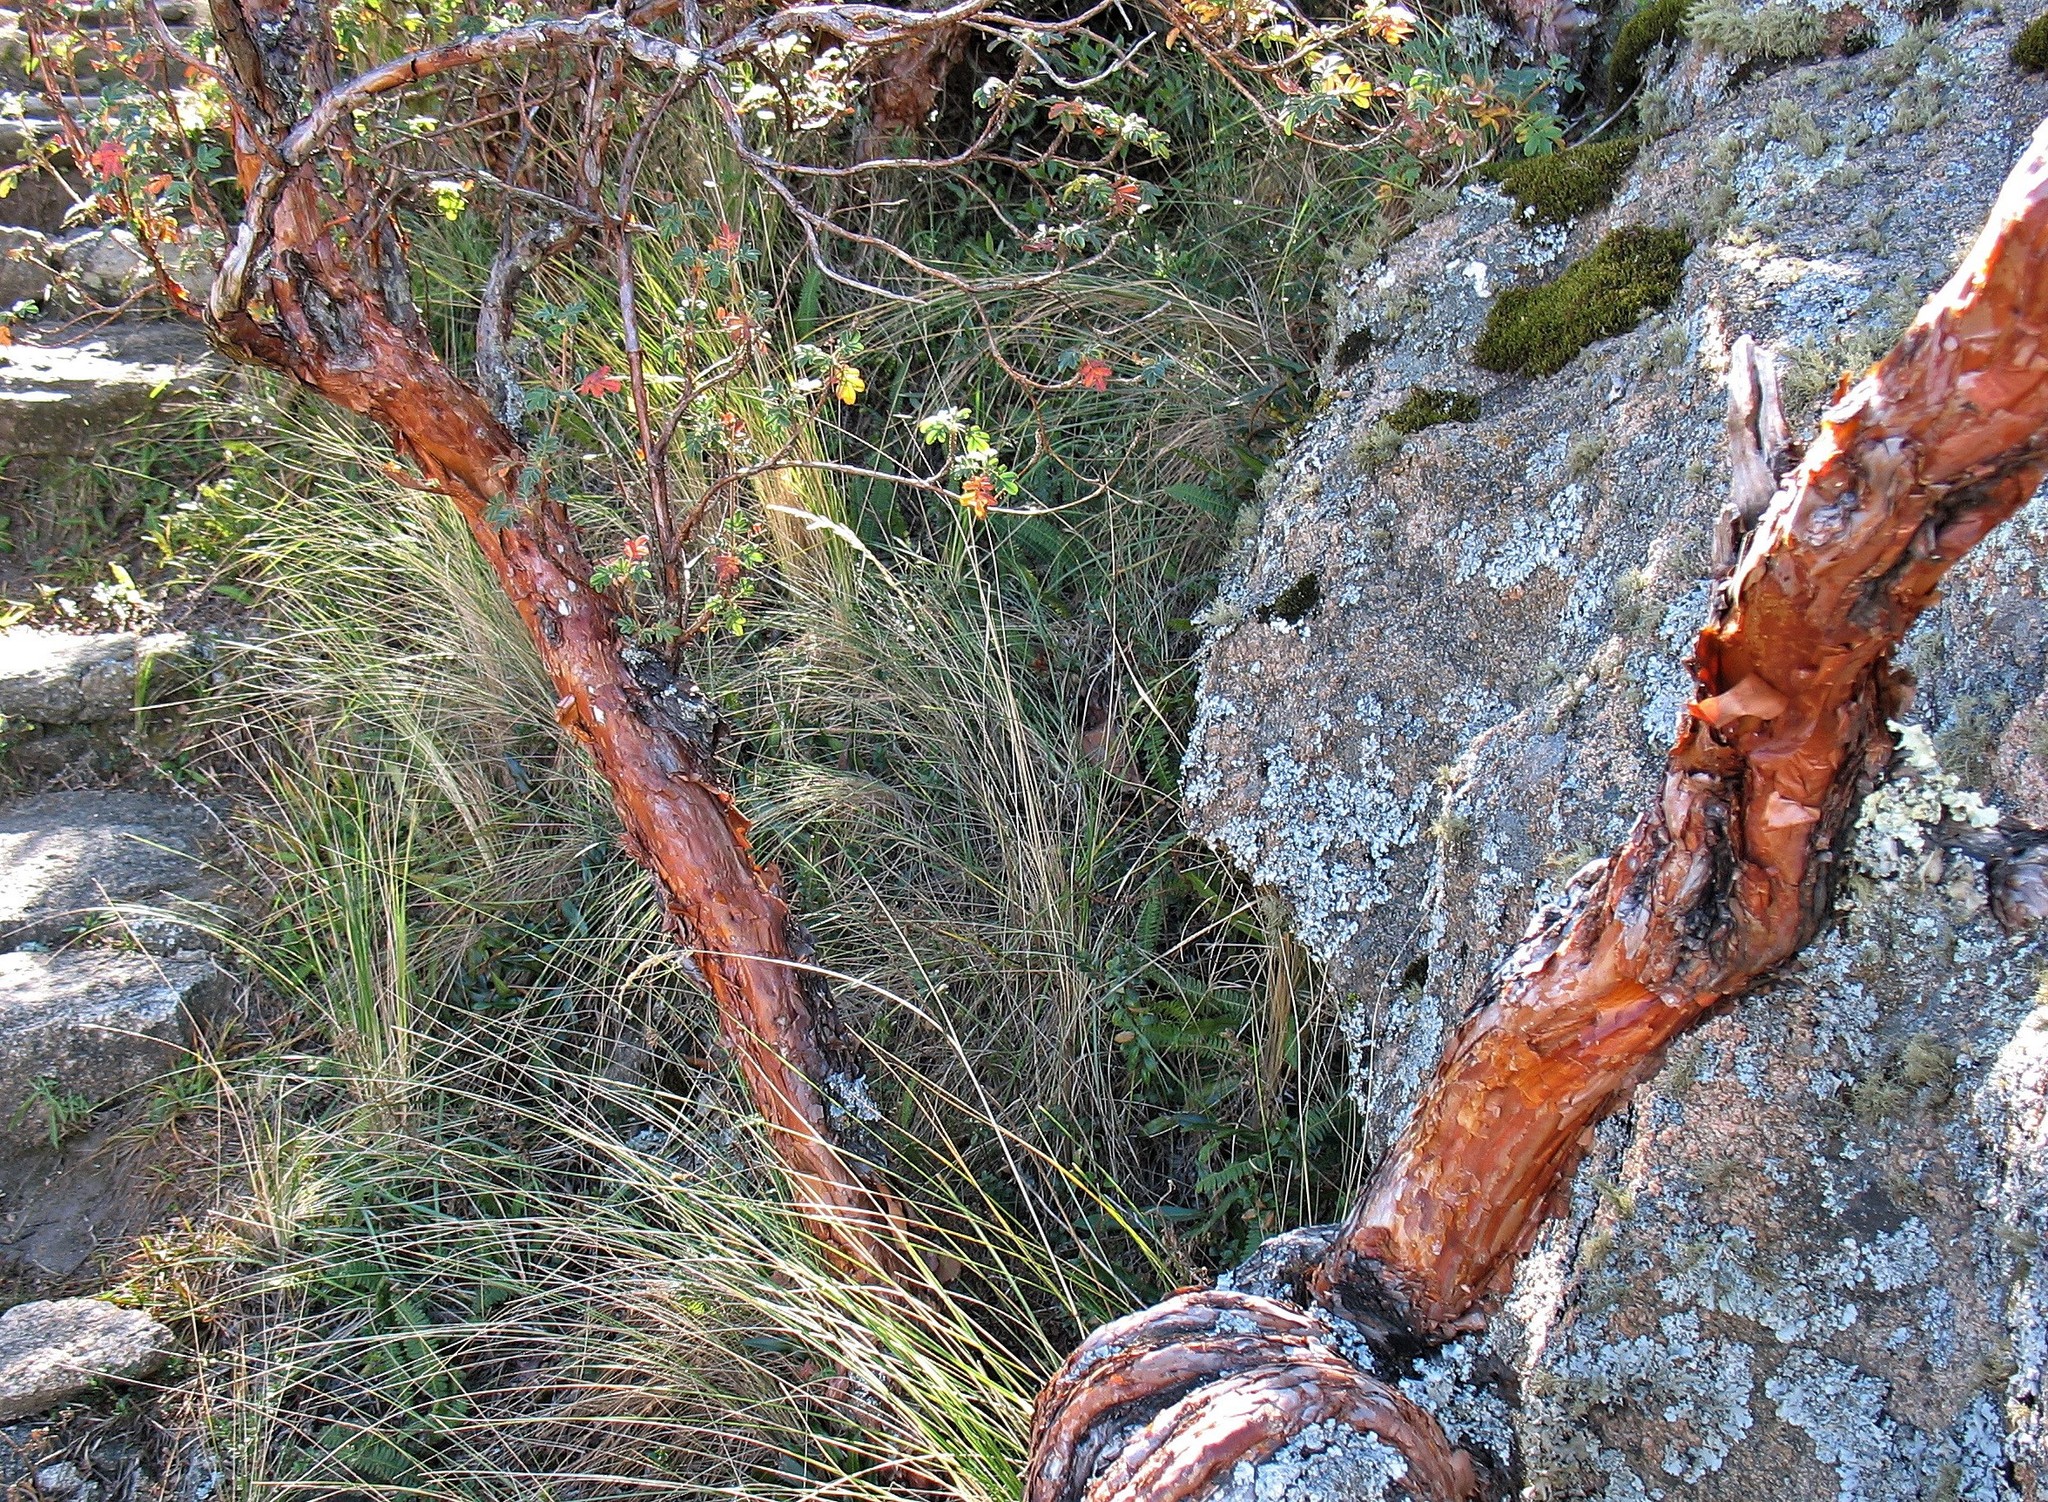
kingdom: Plantae
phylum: Tracheophyta
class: Magnoliopsida
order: Rosales
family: Rosaceae
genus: Polylepis
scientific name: Polylepis australis
